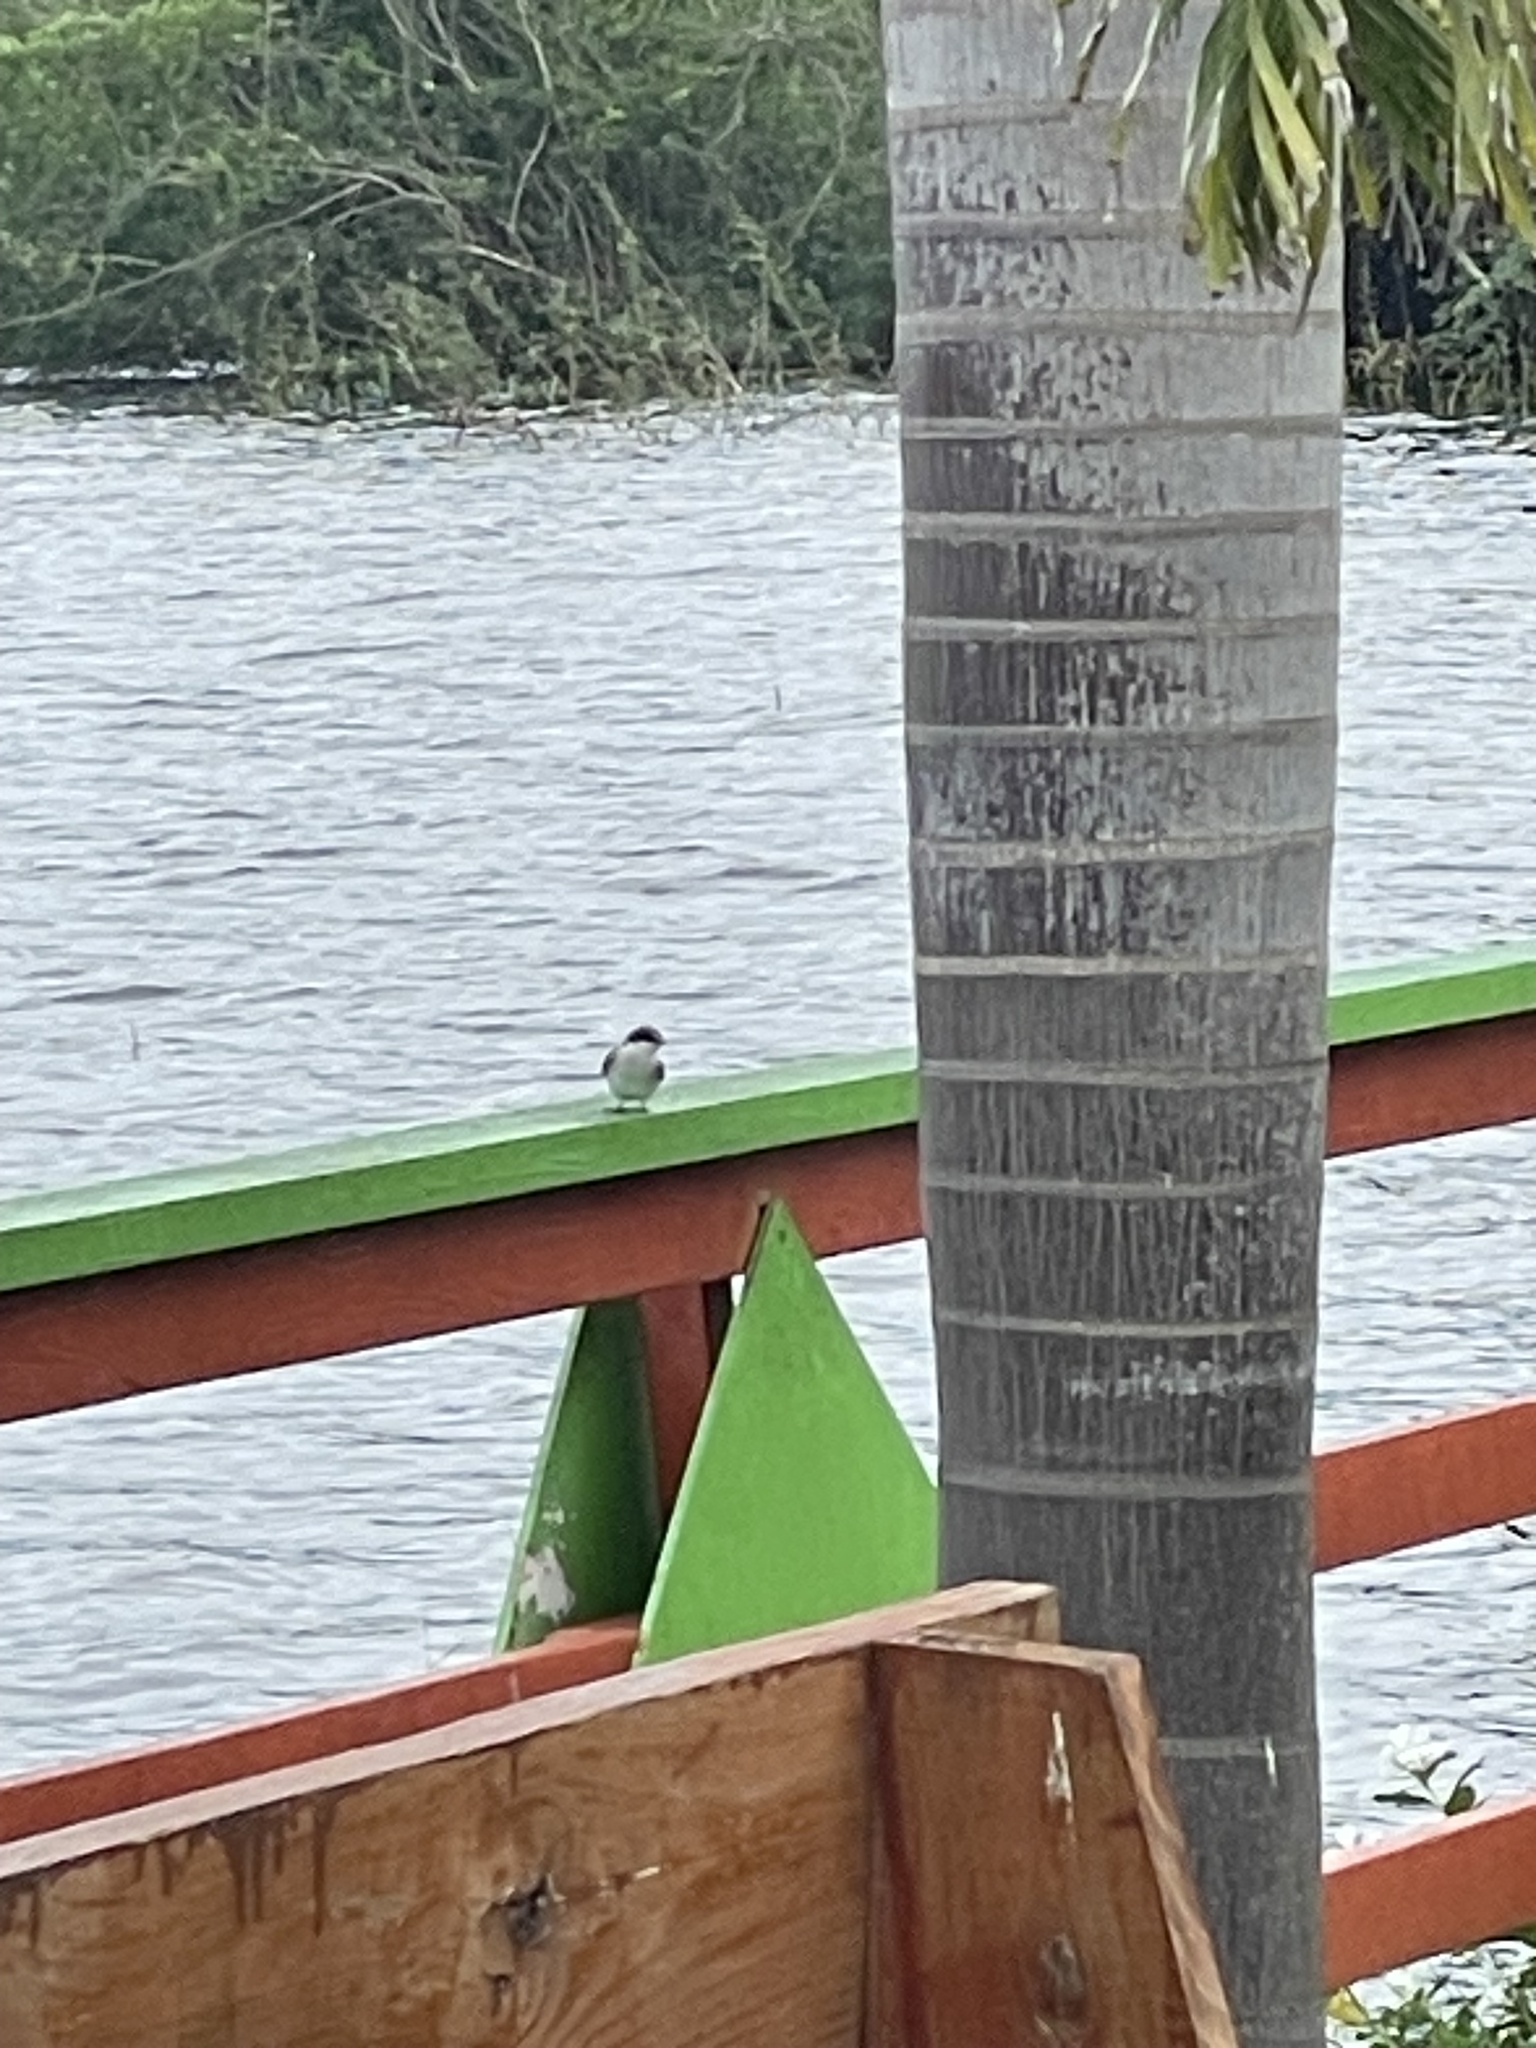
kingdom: Animalia
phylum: Chordata
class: Aves
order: Passeriformes
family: Hirundinidae
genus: Tachycineta
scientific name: Tachycineta albilinea
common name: Mangrove swallow
